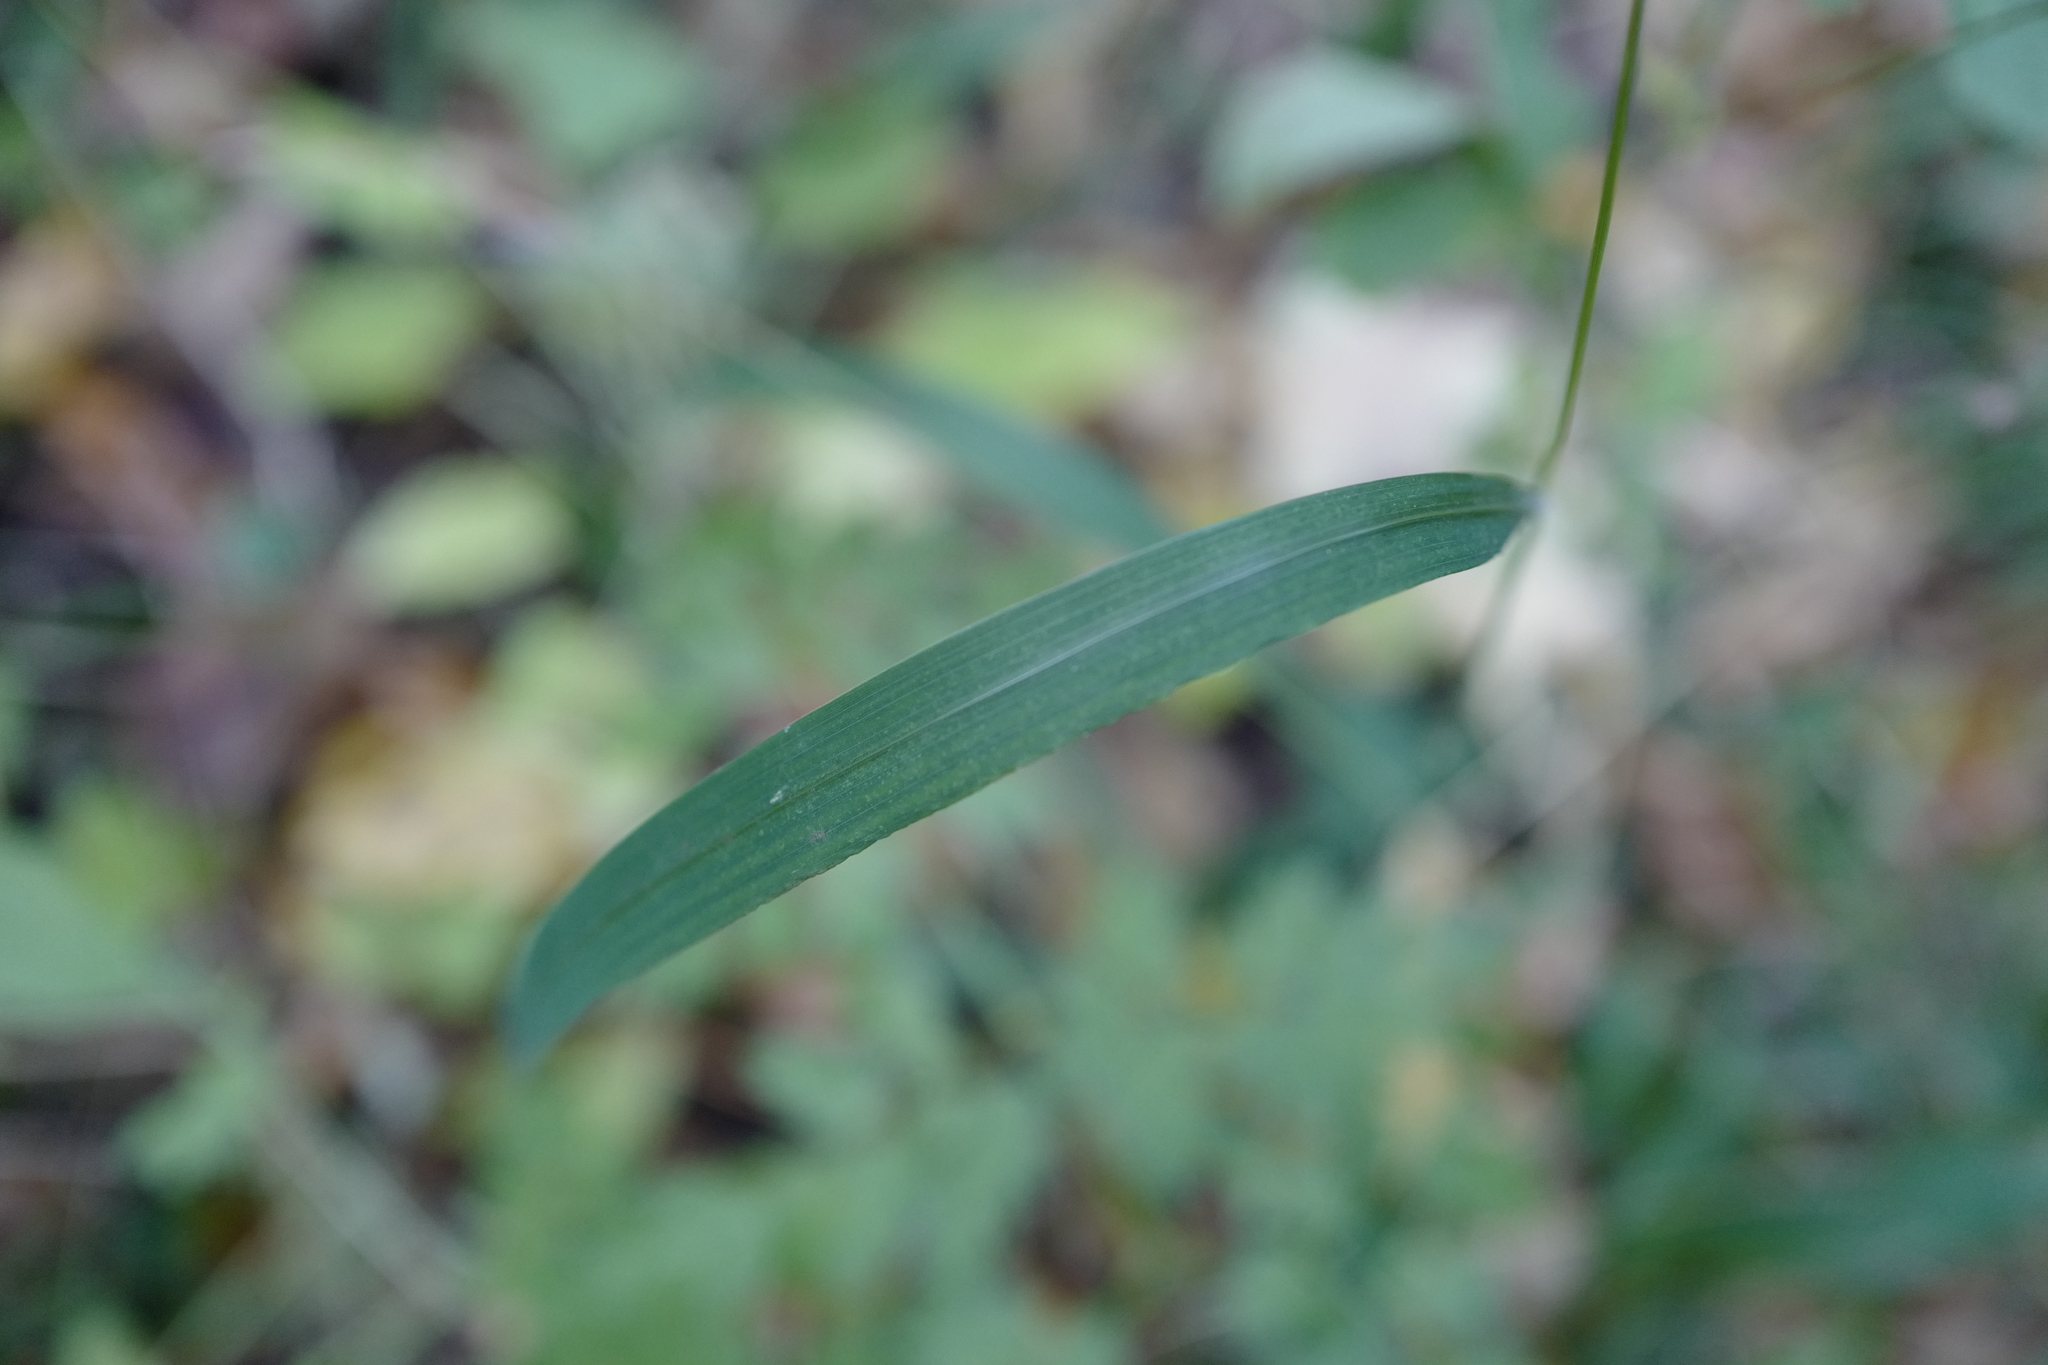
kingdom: Plantae
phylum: Tracheophyta
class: Liliopsida
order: Poales
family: Poaceae
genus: Brachypodium
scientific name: Brachypodium sylvaticum
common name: False-brome
